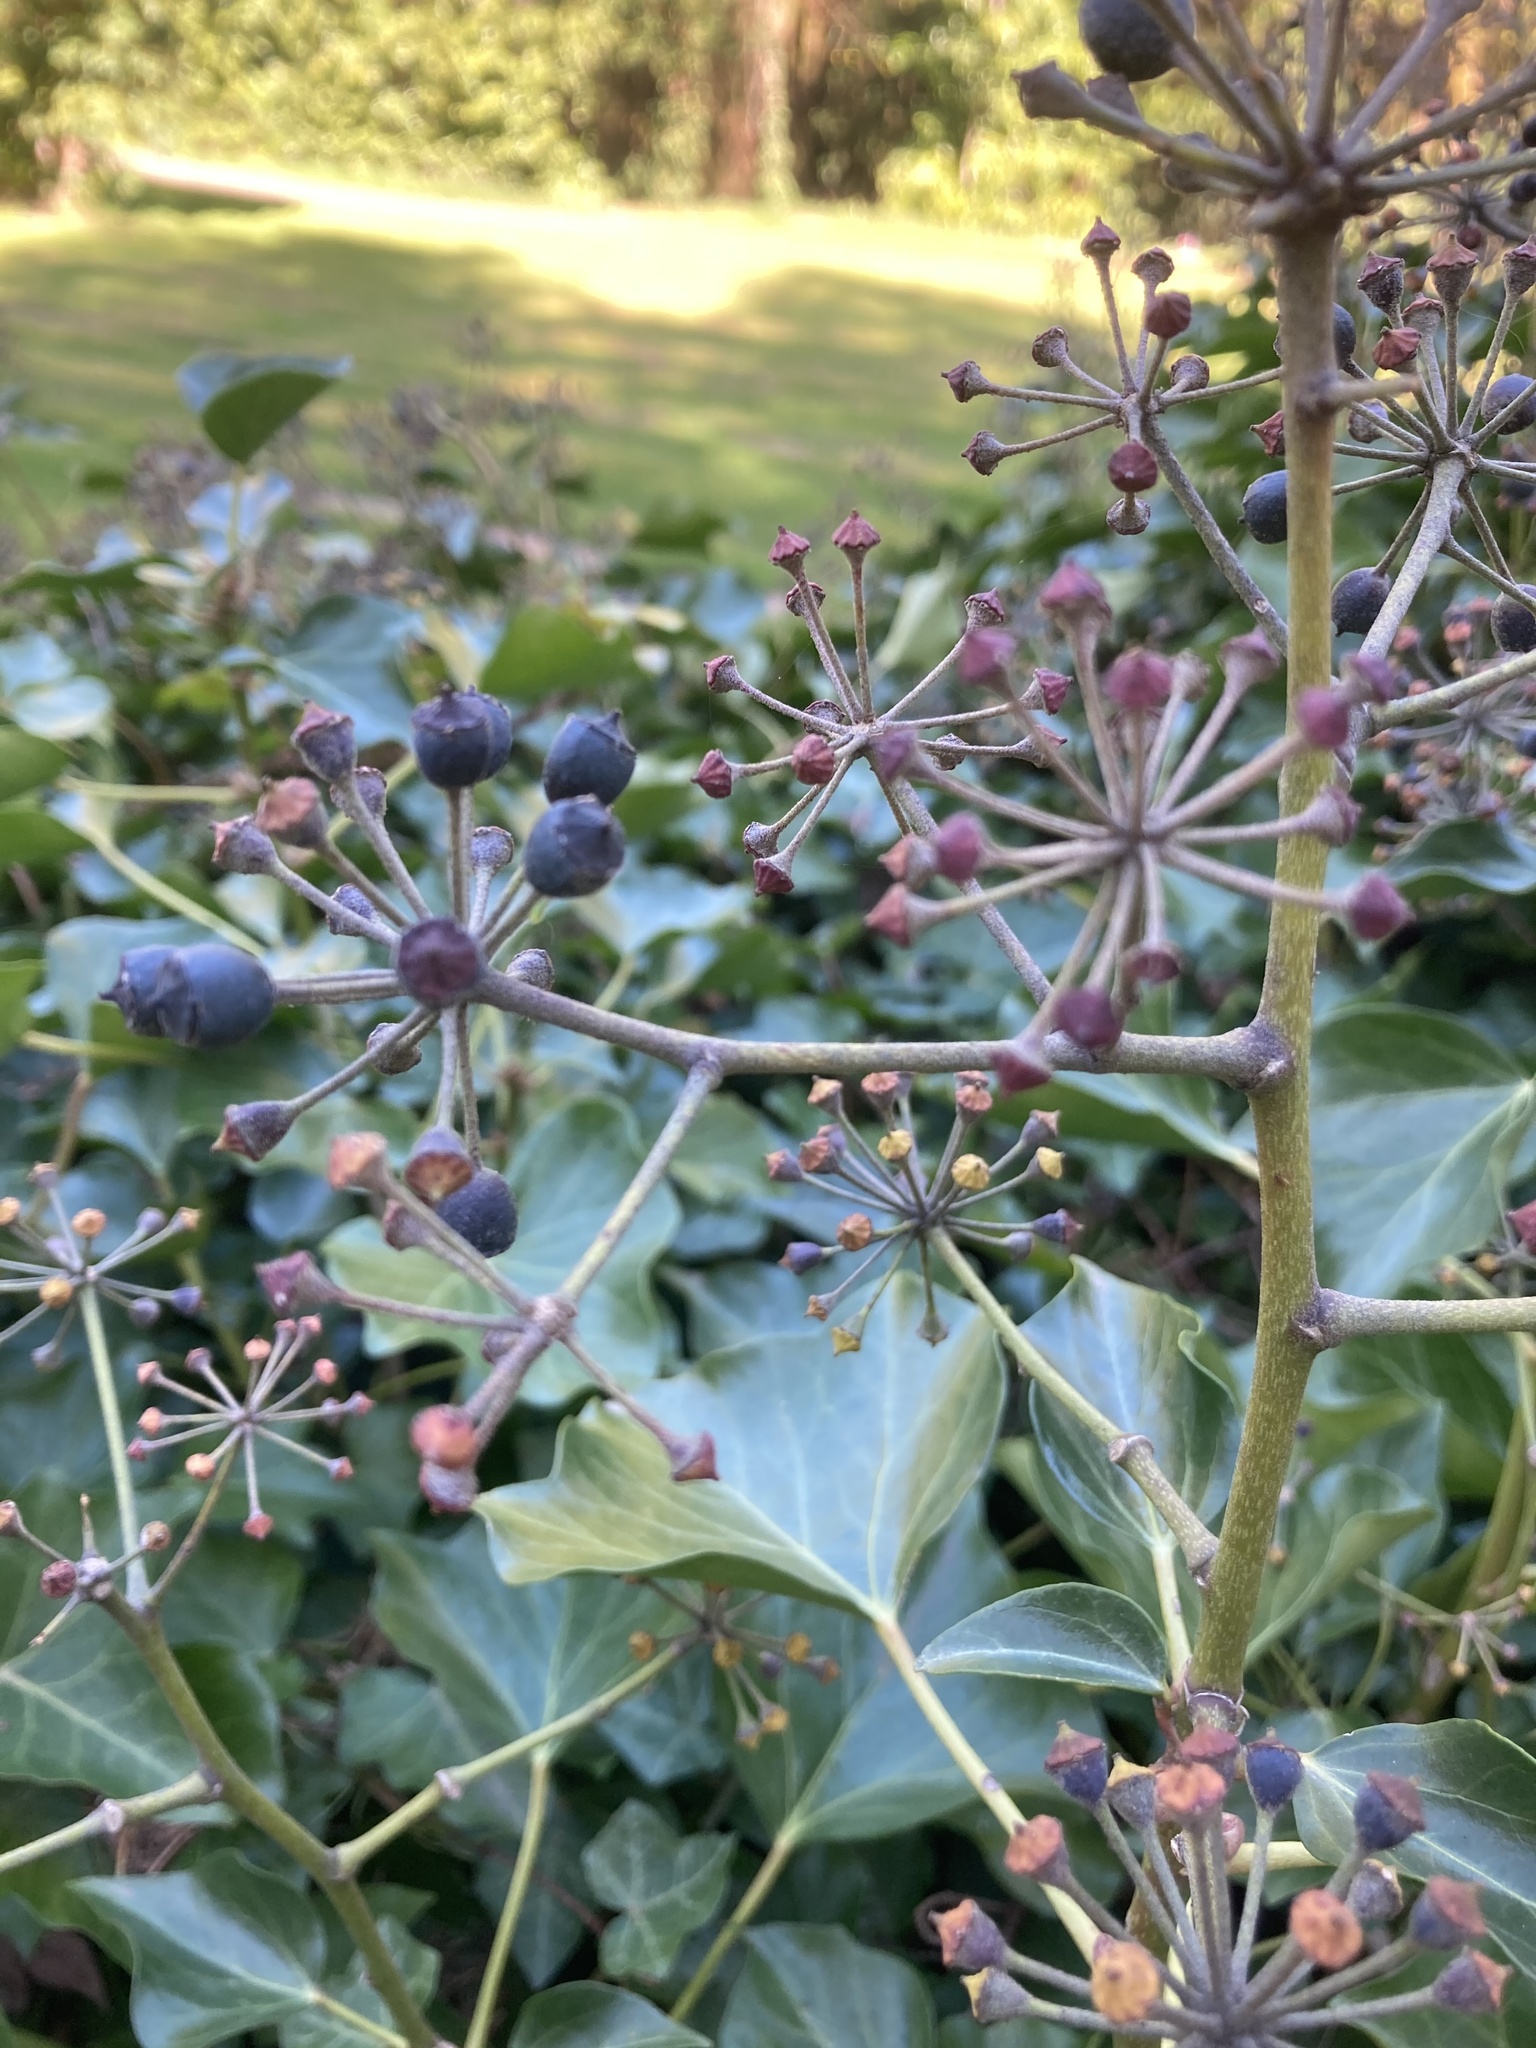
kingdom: Plantae
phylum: Tracheophyta
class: Magnoliopsida
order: Apiales
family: Araliaceae
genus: Hedera
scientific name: Hedera helix
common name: Ivy
